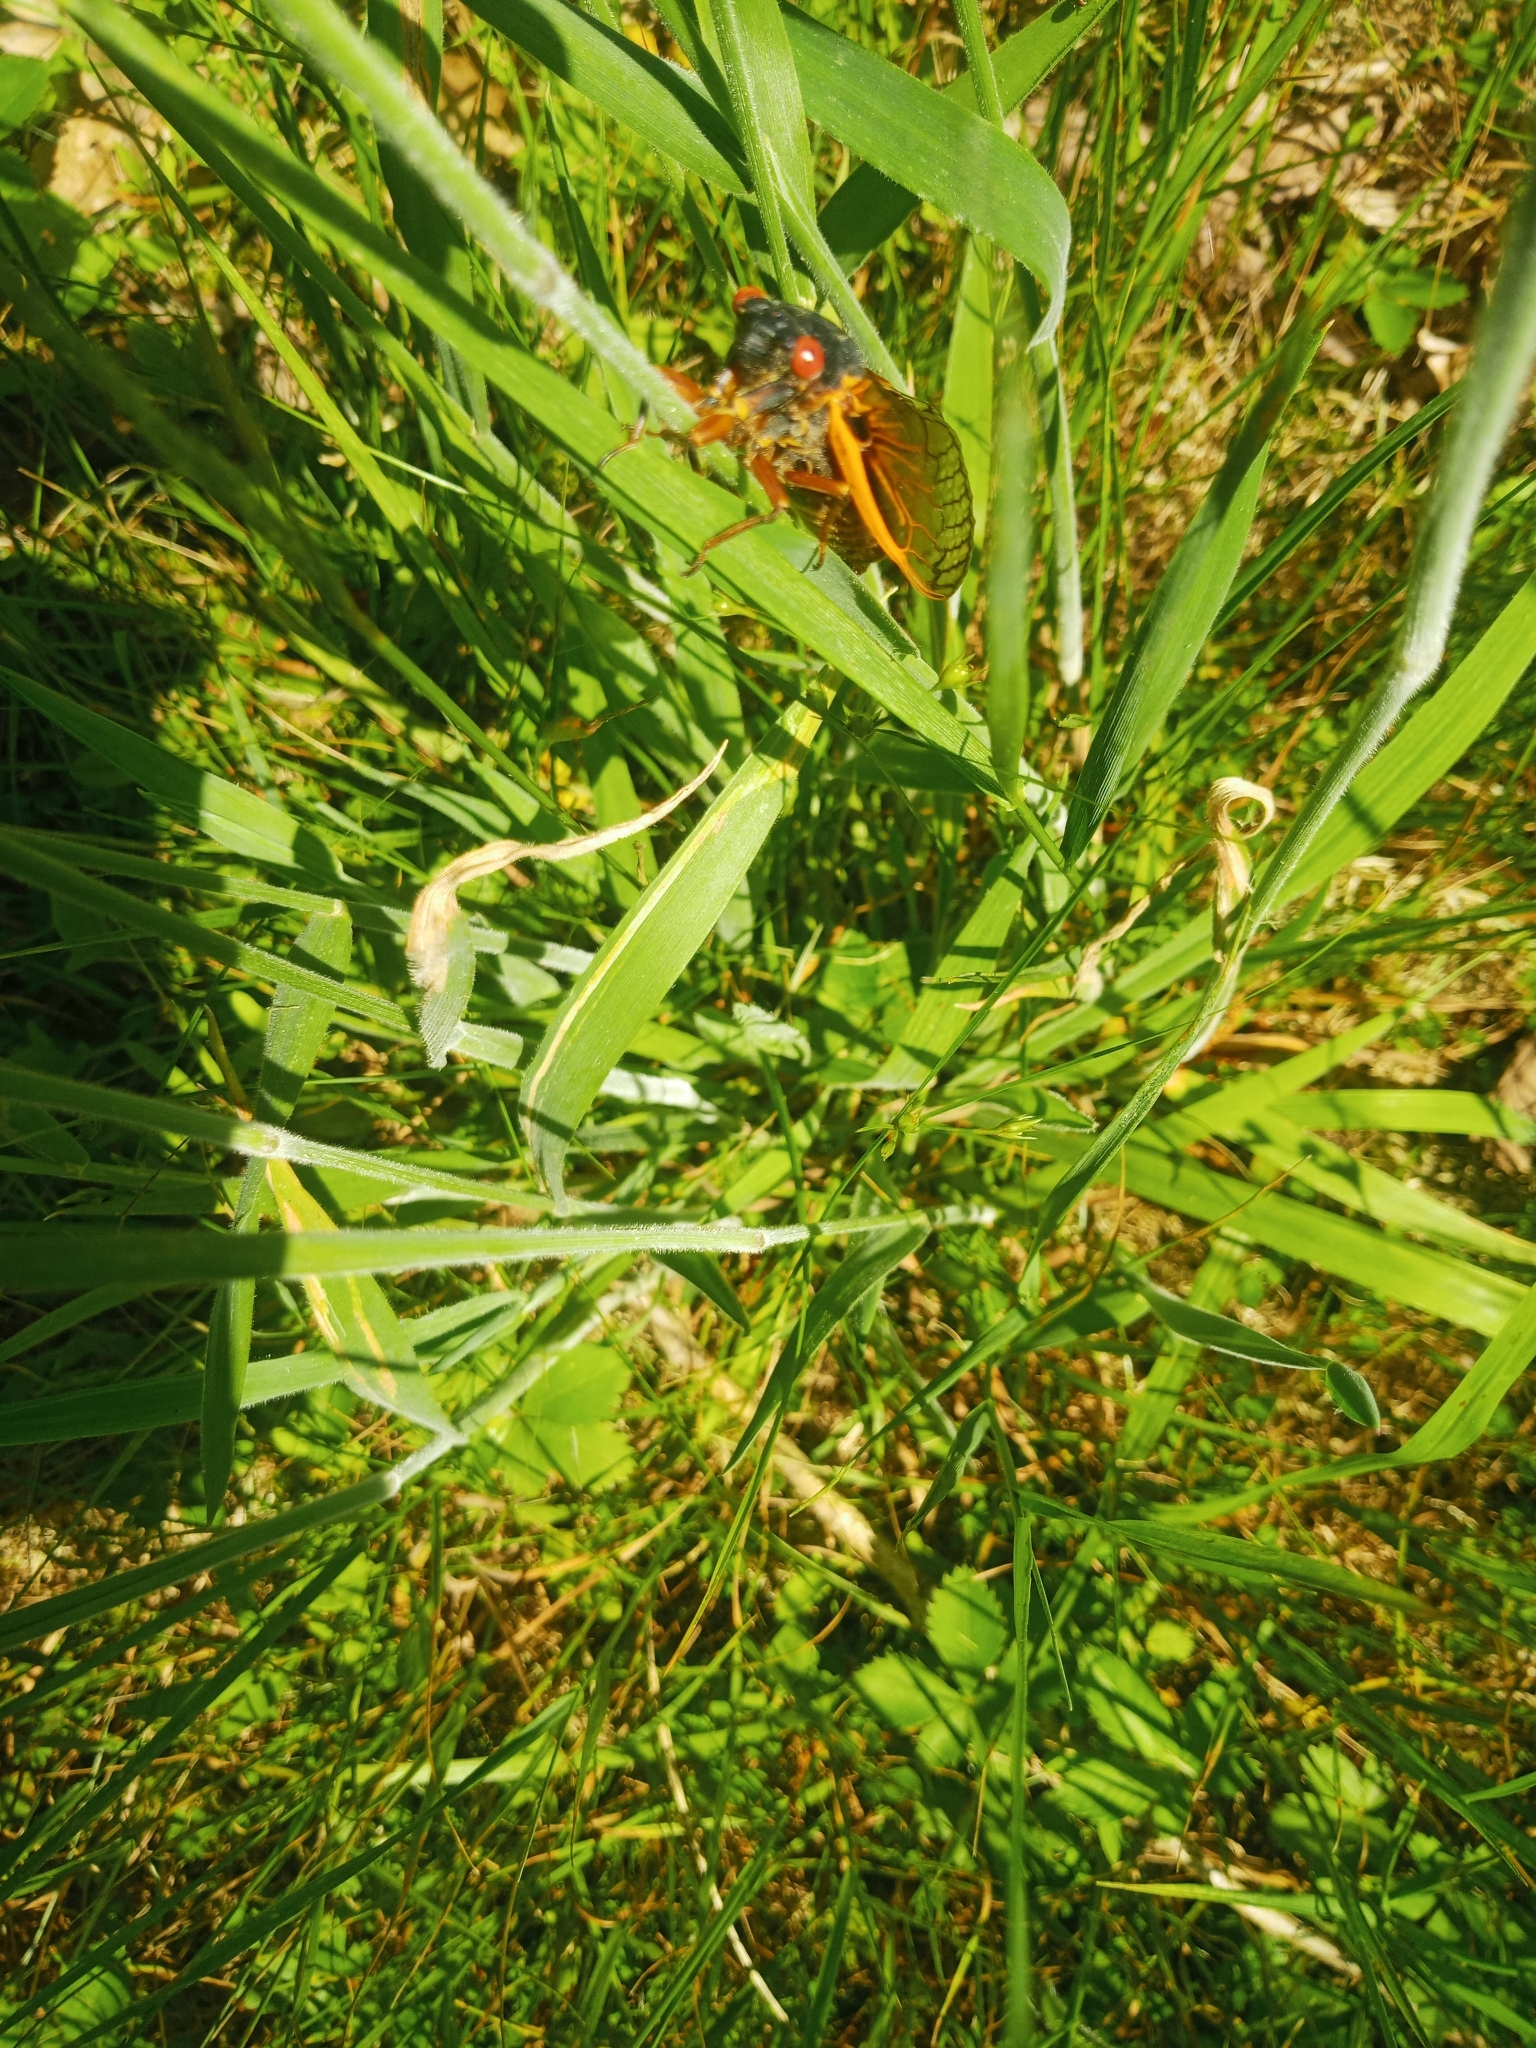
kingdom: Animalia
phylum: Arthropoda
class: Insecta
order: Hemiptera
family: Cicadidae
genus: Magicicada
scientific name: Magicicada septendecim
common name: Periodical cicada
